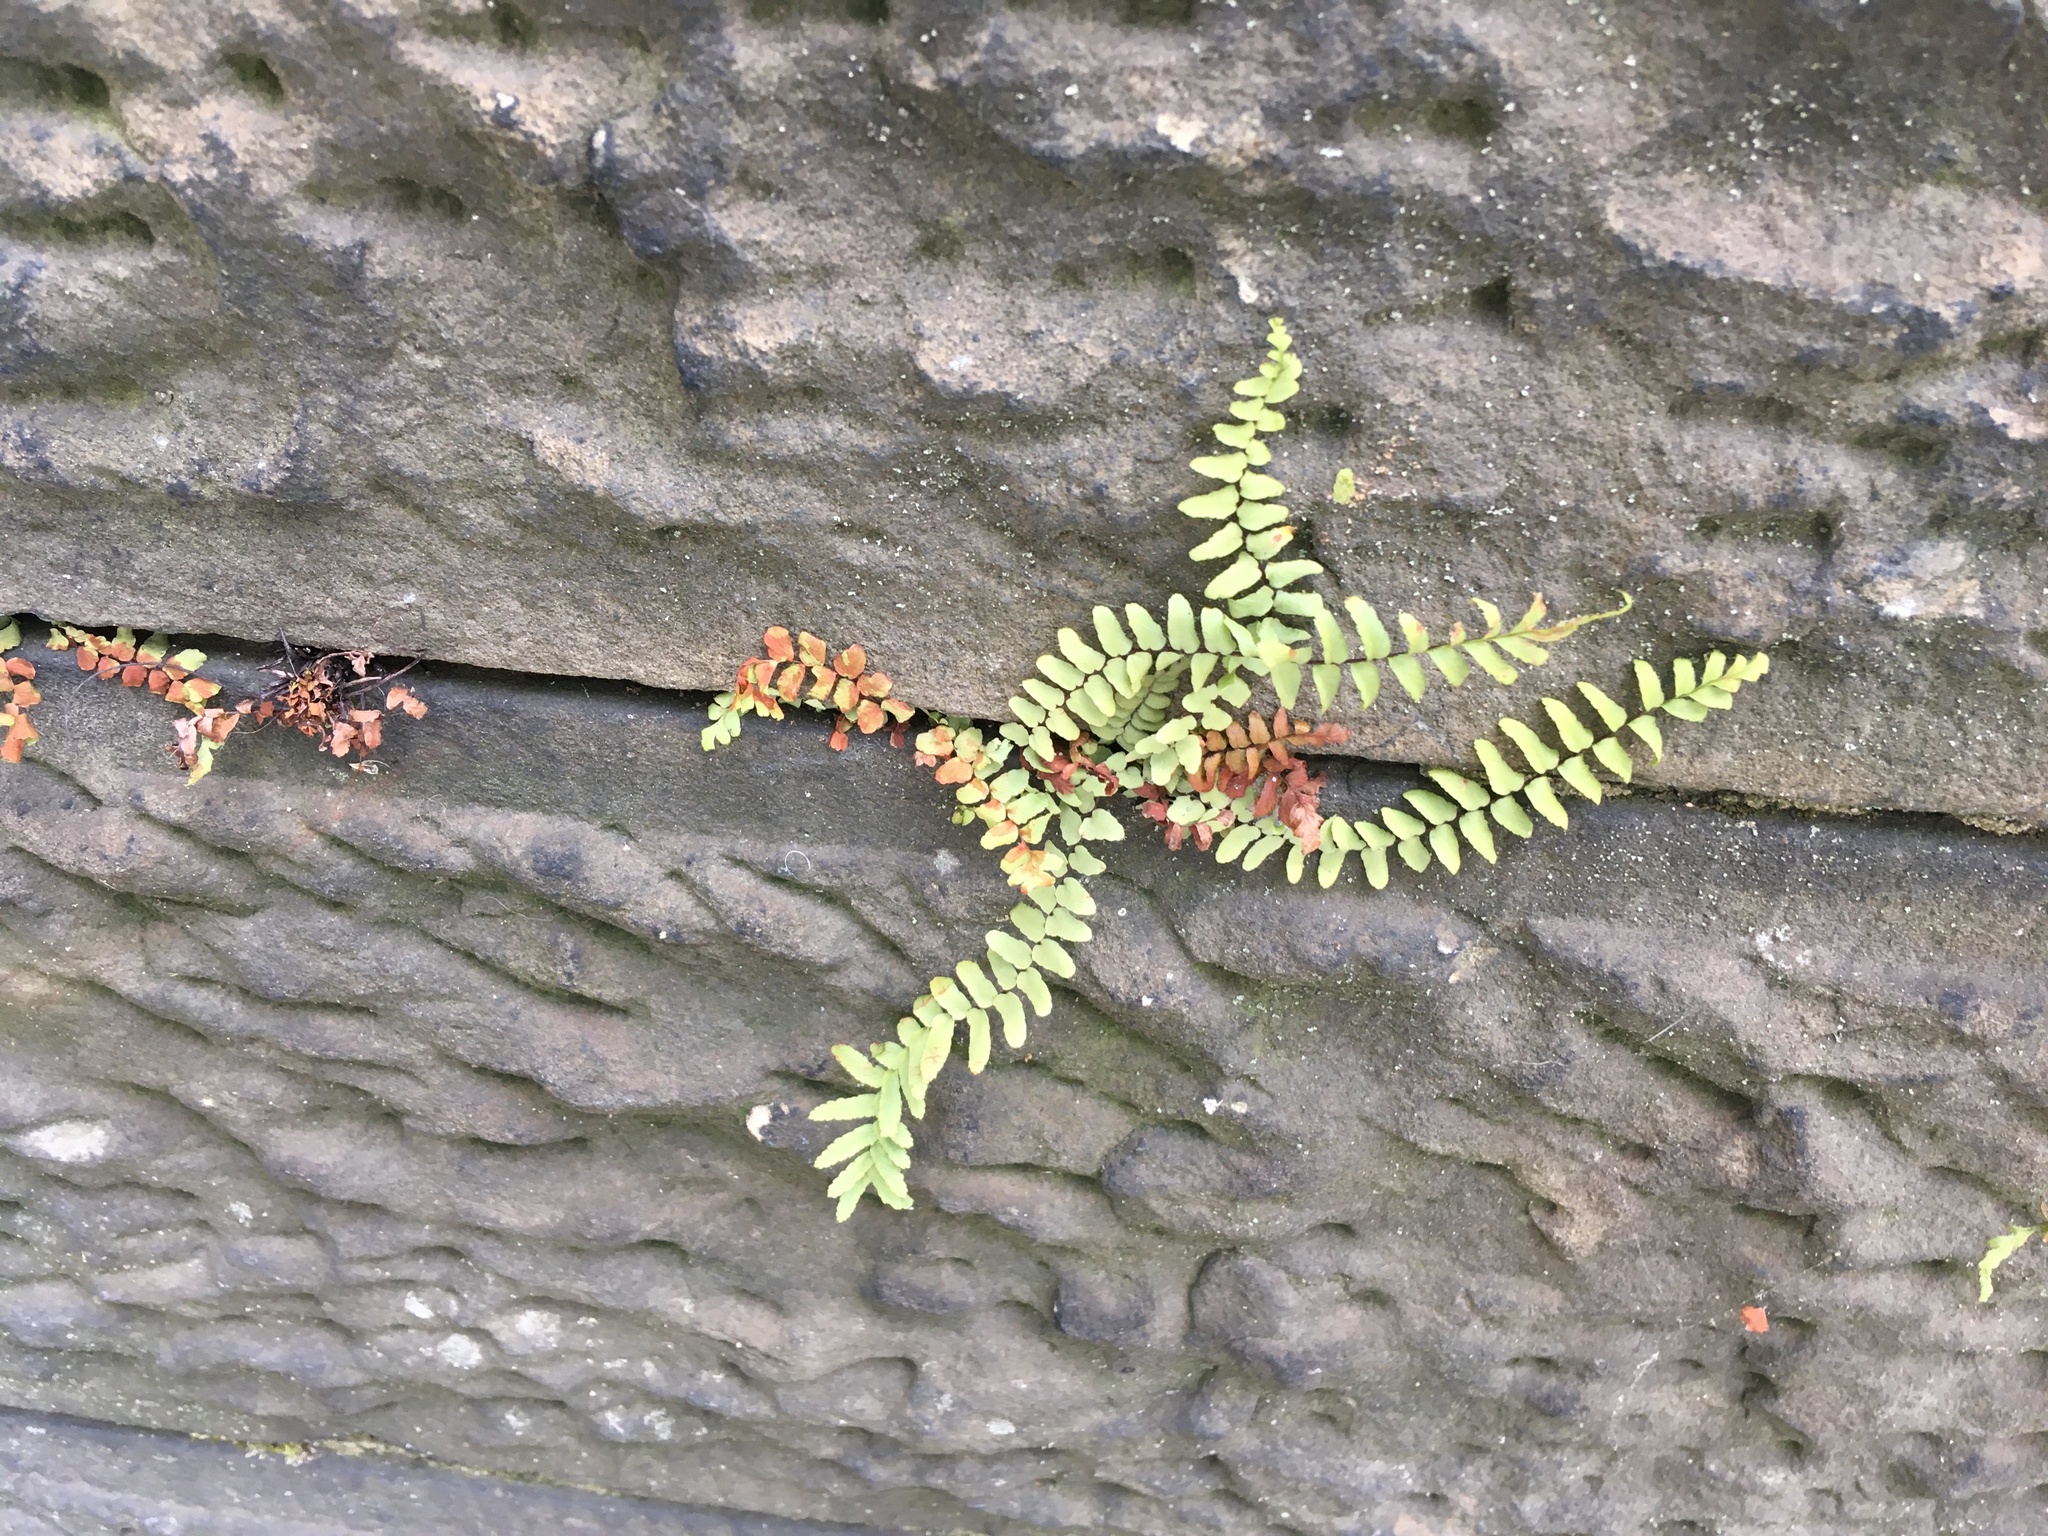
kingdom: Plantae
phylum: Tracheophyta
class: Polypodiopsida
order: Polypodiales
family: Aspleniaceae
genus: Asplenium
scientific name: Asplenium platyneuron
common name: Ebony spleenwort
